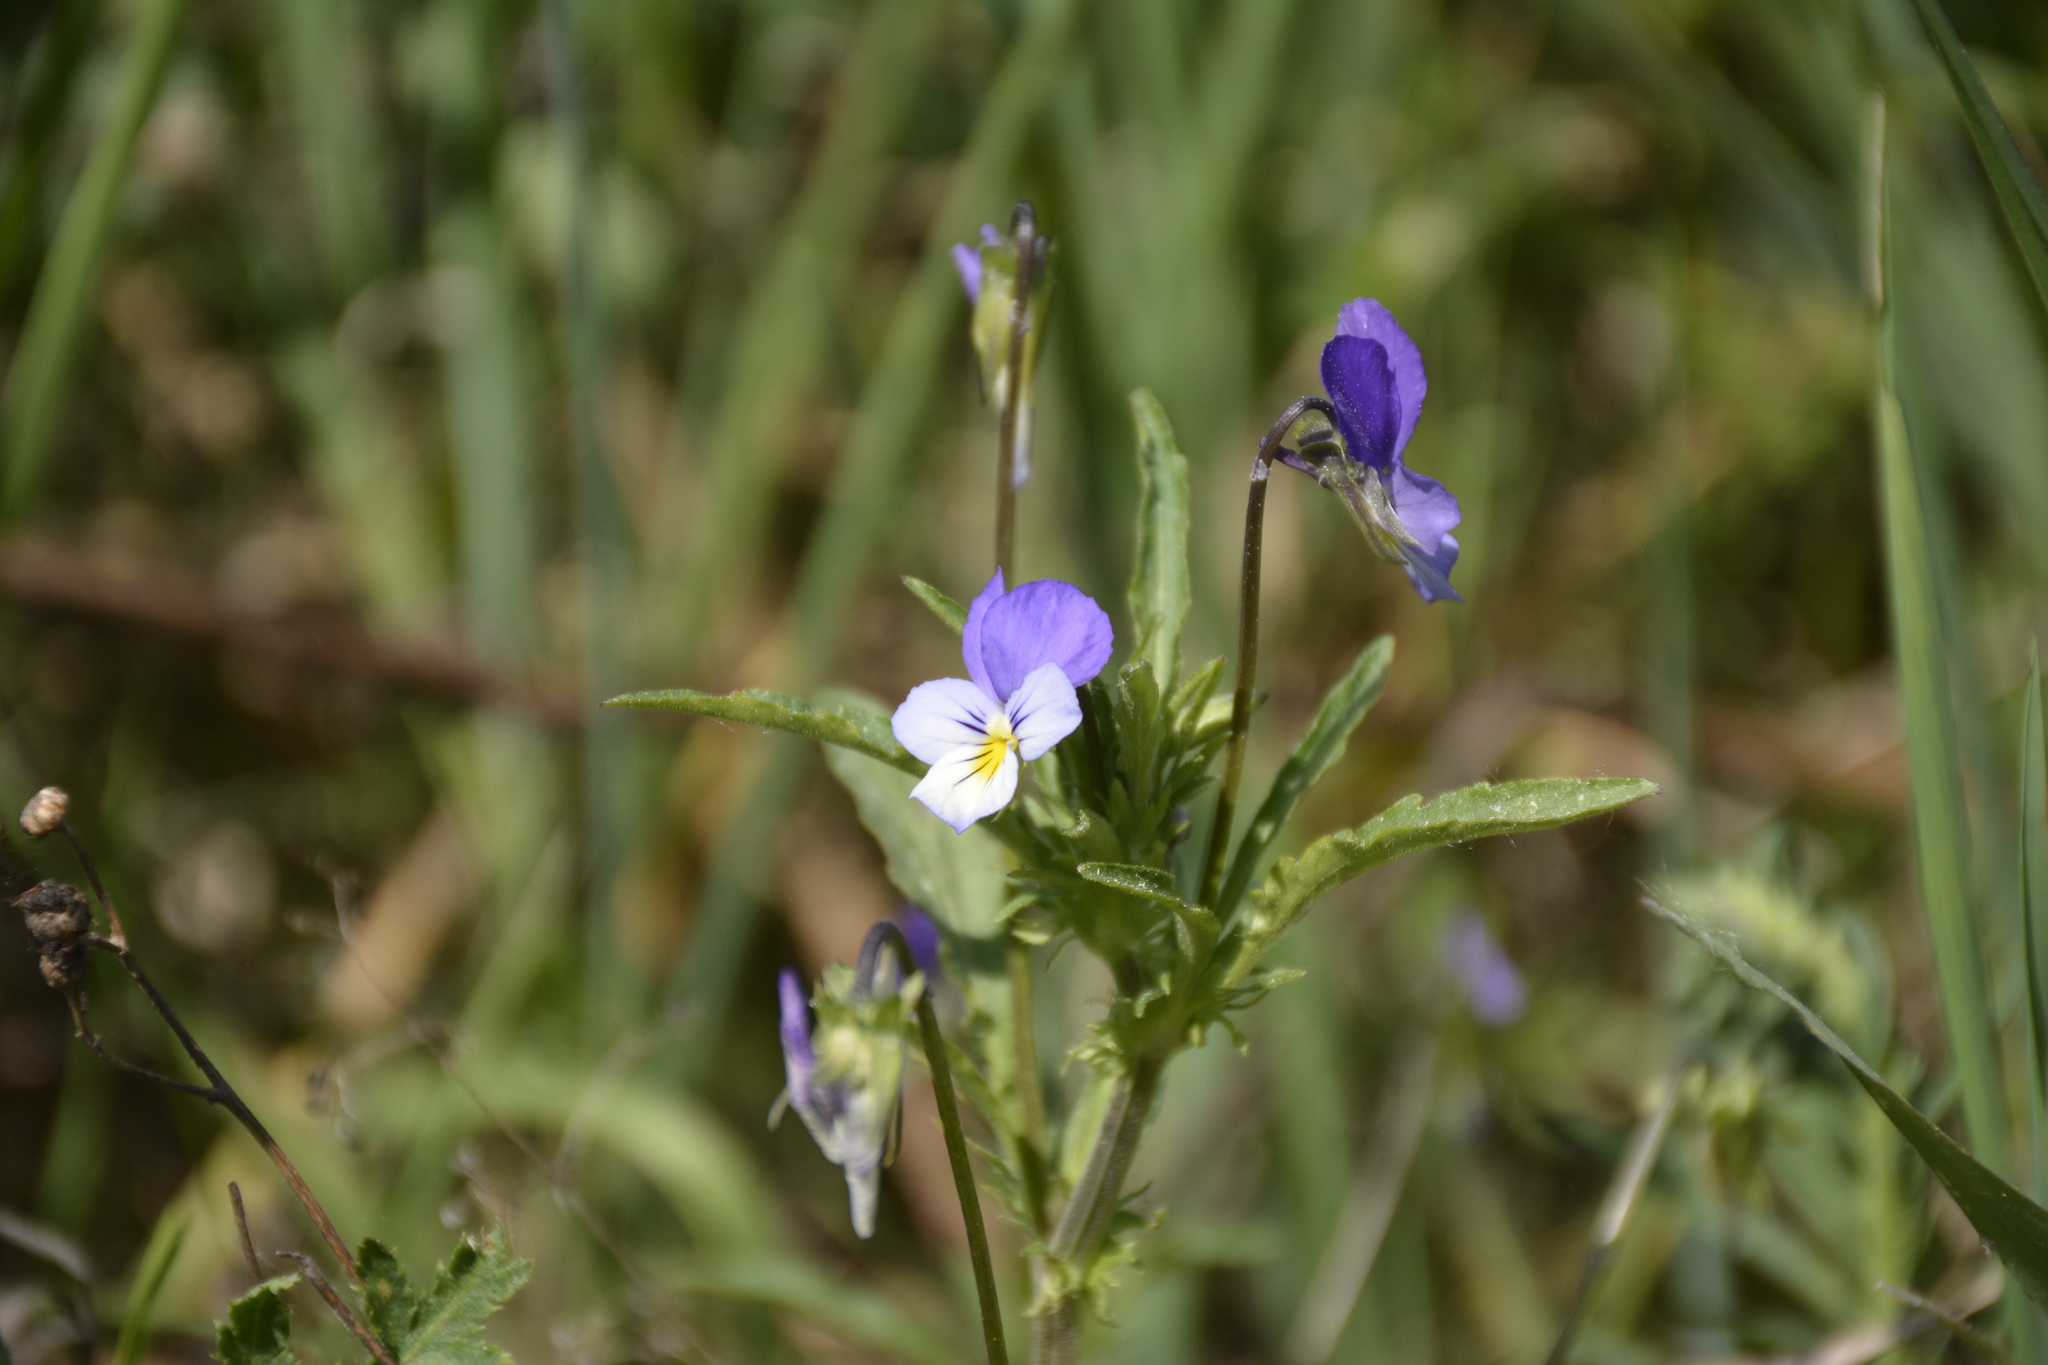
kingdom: Plantae
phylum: Tracheophyta
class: Magnoliopsida
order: Malpighiales
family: Violaceae
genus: Viola
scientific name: Viola tricolor
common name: Pansy
